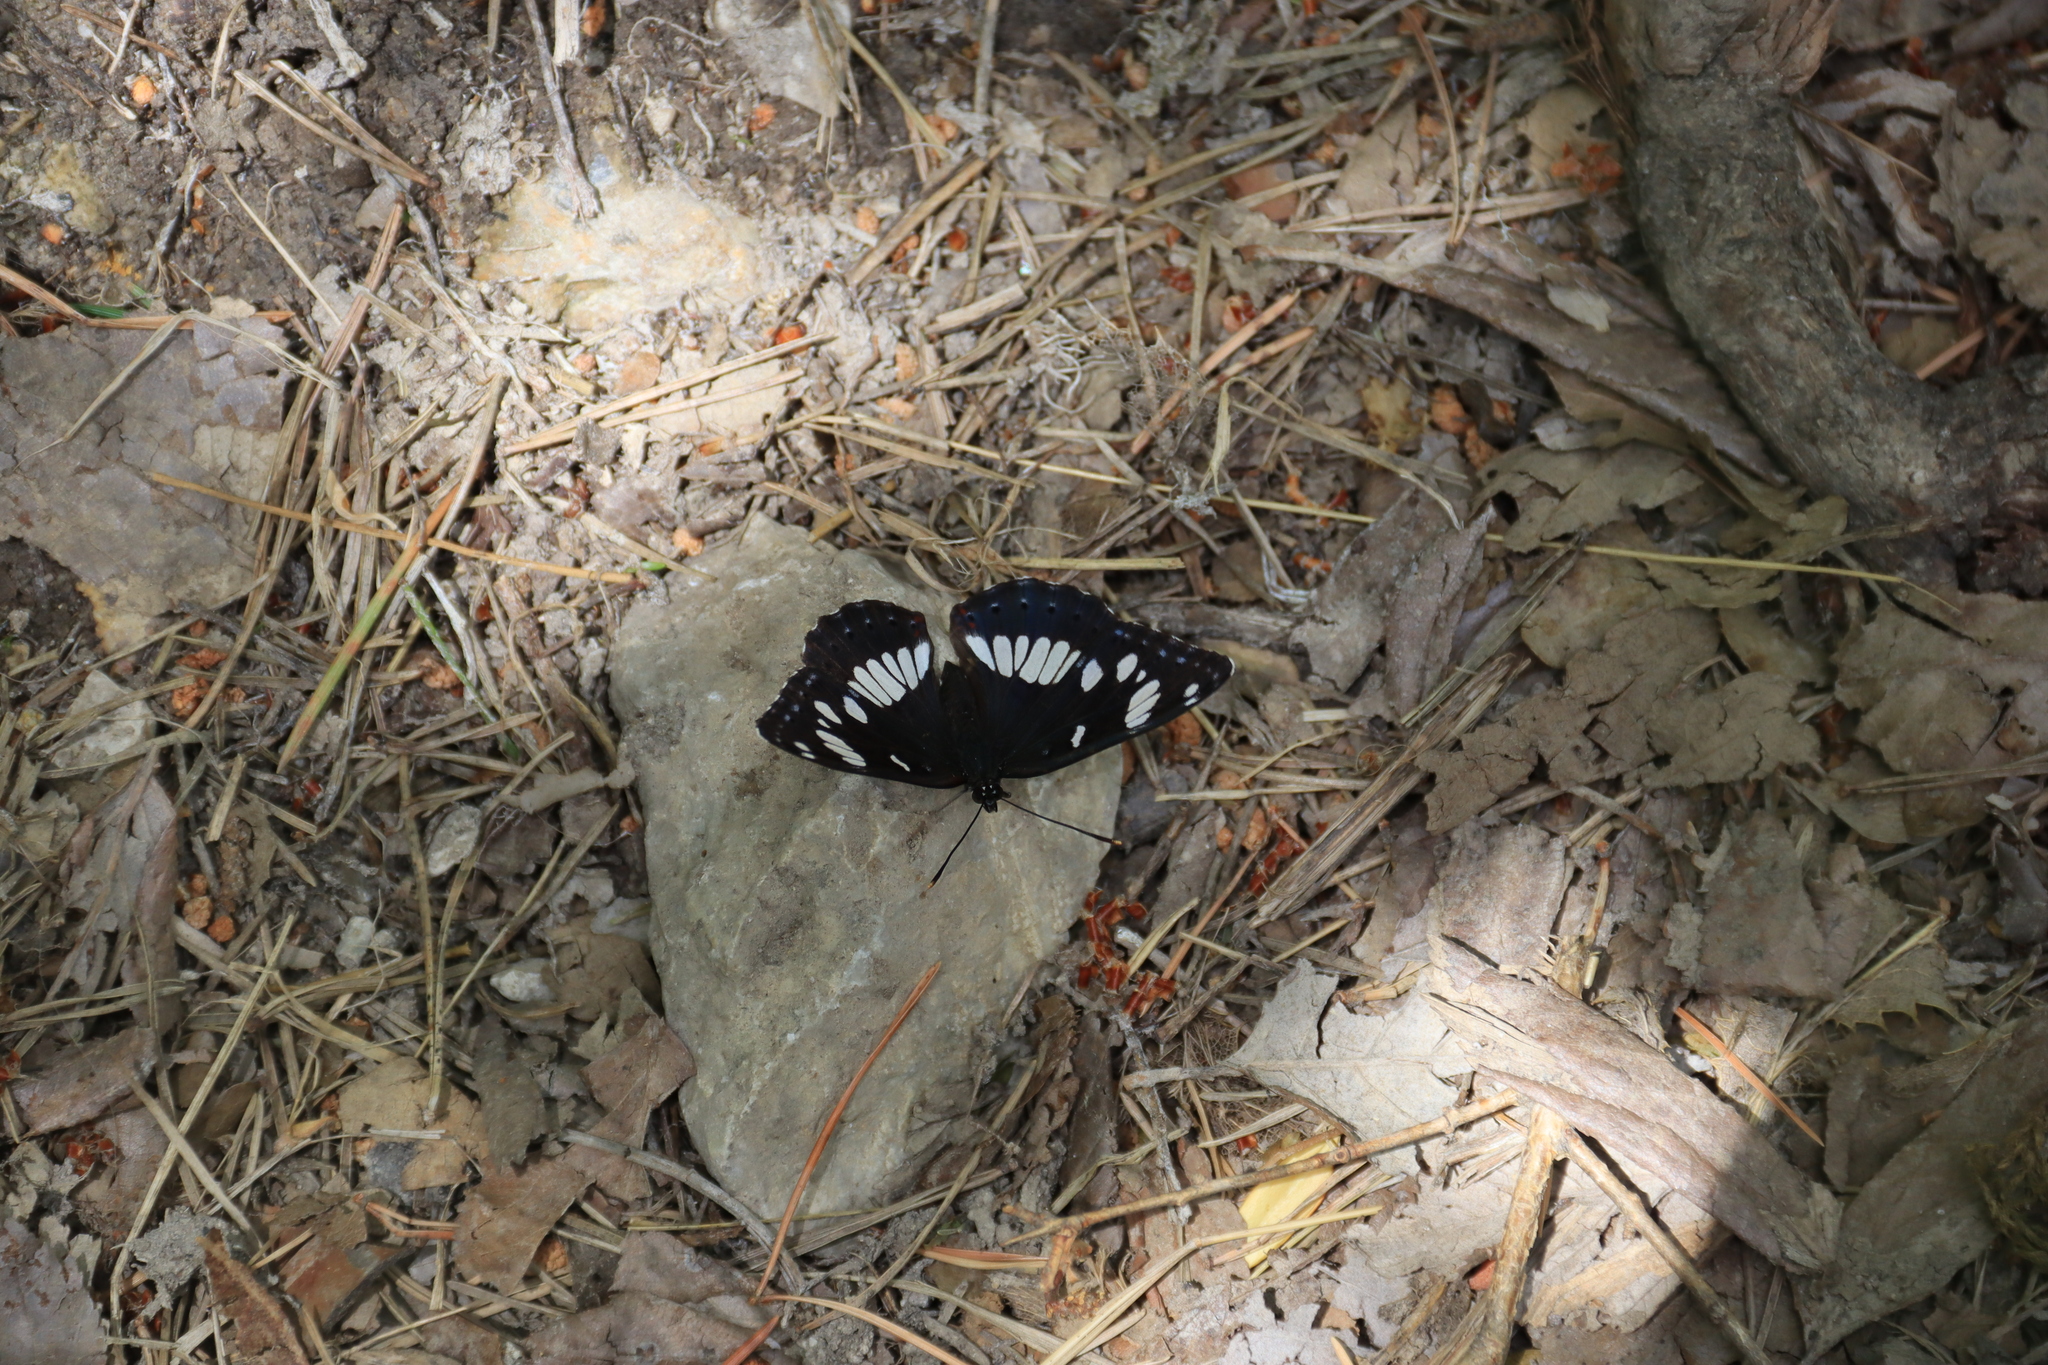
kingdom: Animalia
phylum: Arthropoda
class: Insecta
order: Lepidoptera
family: Nymphalidae
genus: Limenitis
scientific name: Limenitis reducta
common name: Southern white admiral
